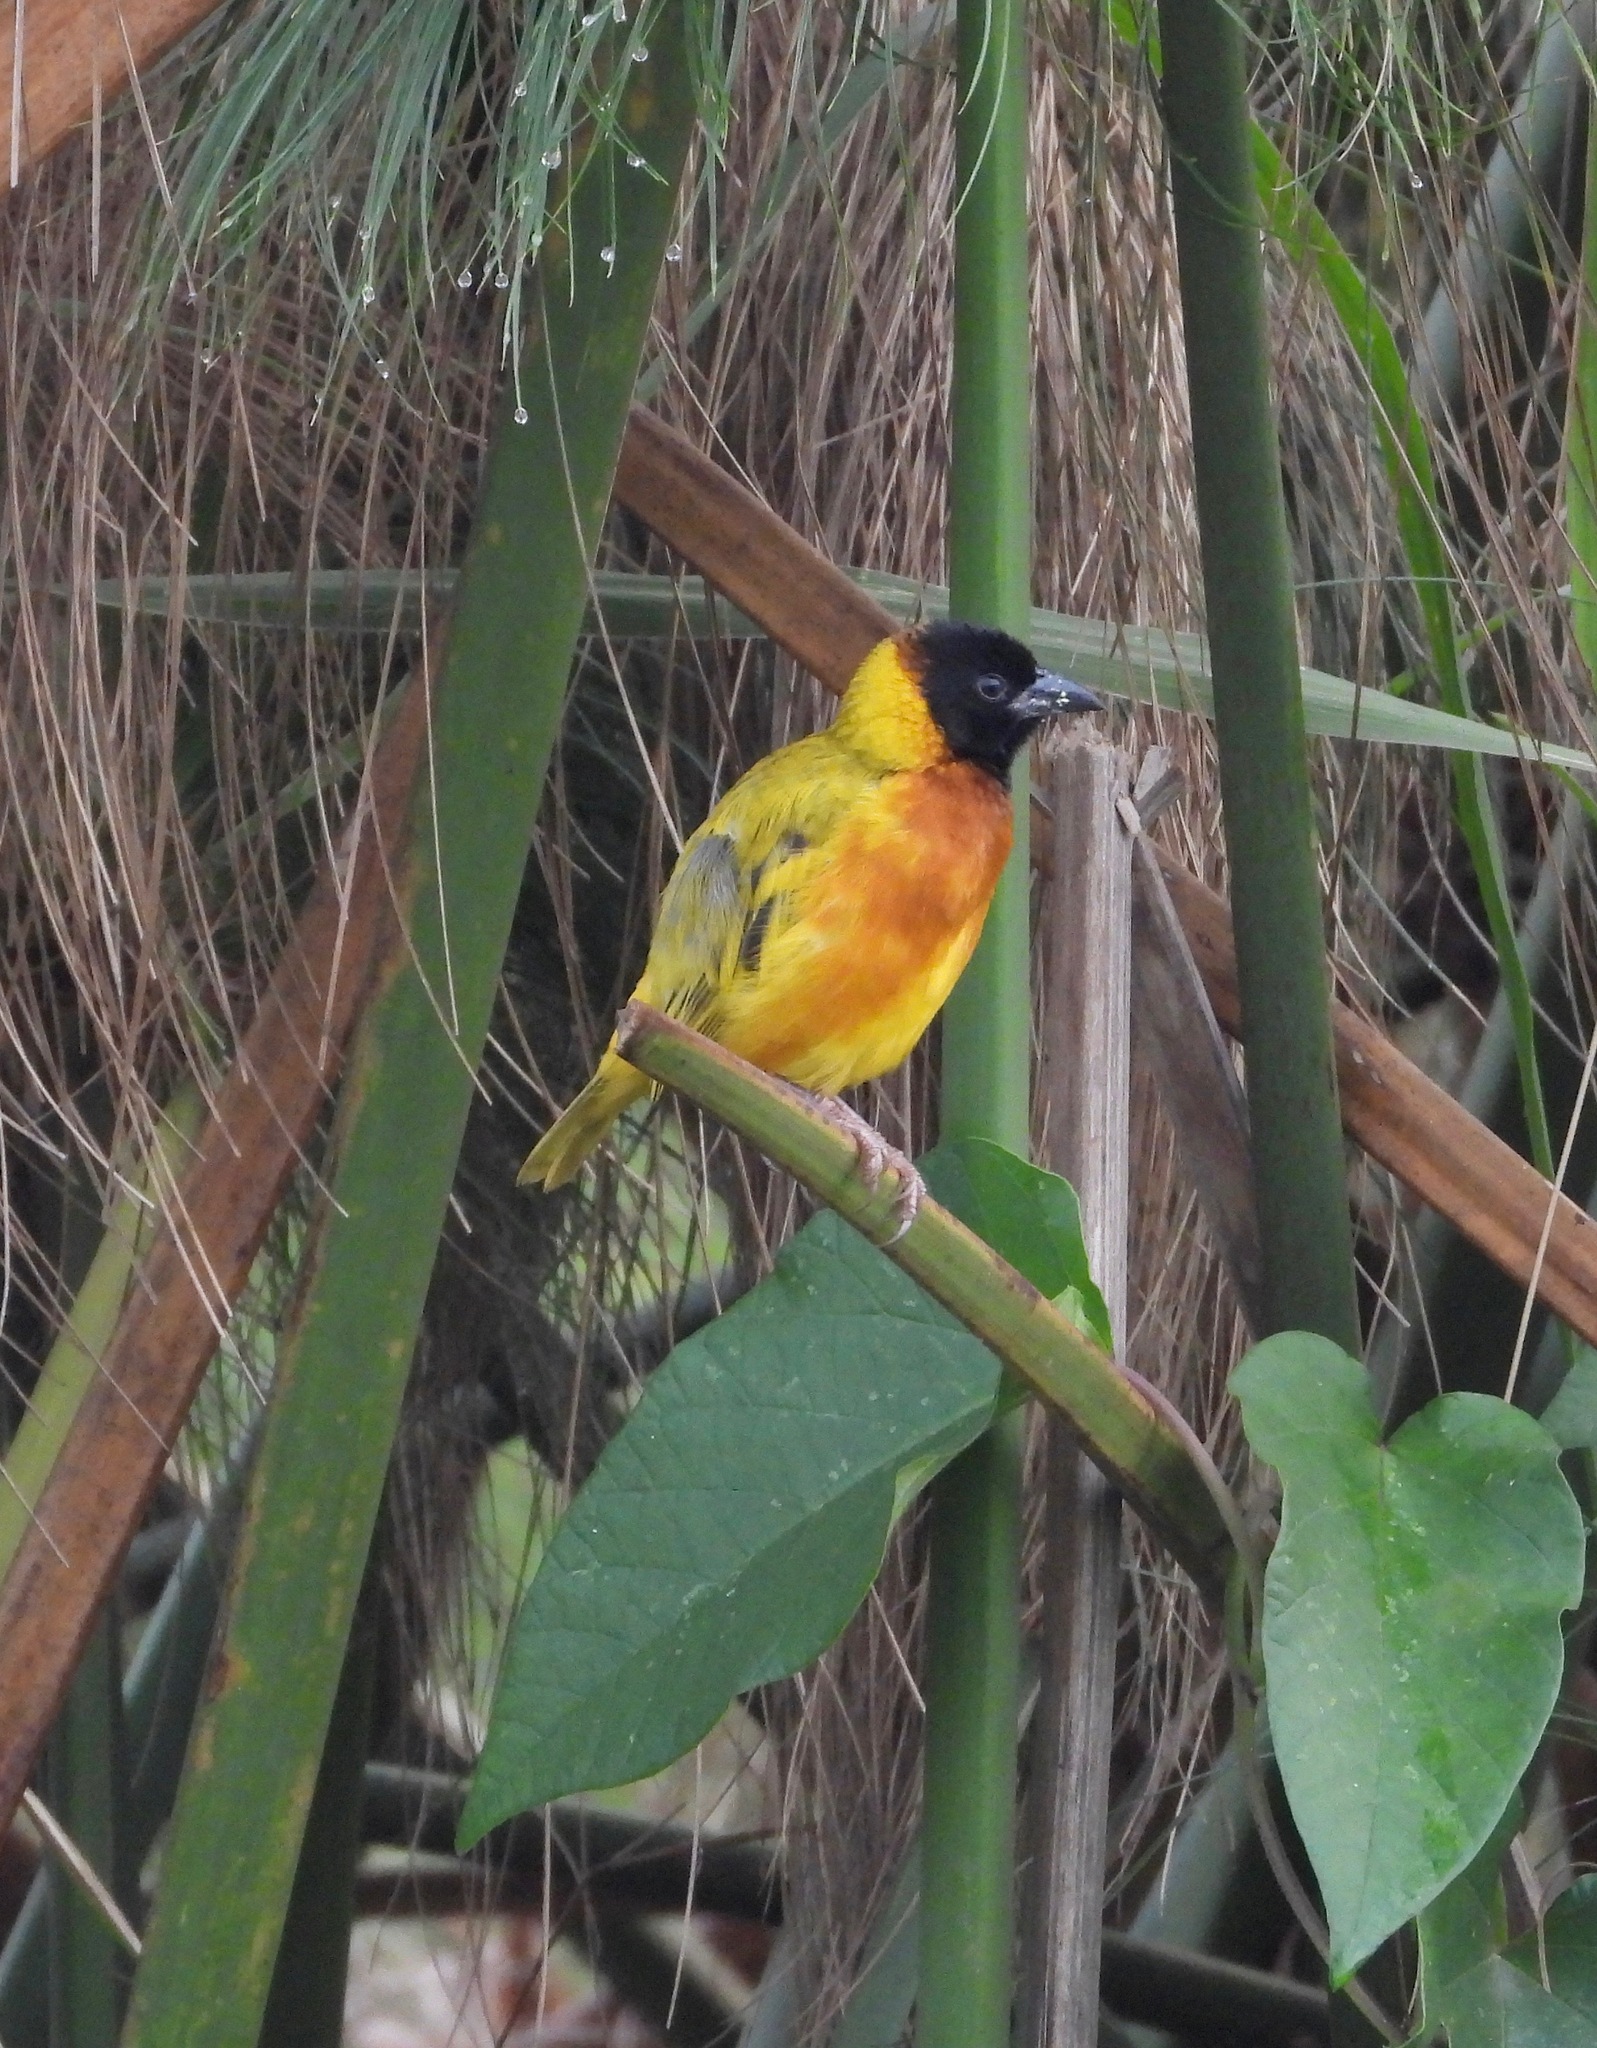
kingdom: Animalia
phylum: Chordata
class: Aves
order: Passeriformes
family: Ploceidae
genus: Ploceus
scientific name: Ploceus melanocephalus
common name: Black-headed weaver
